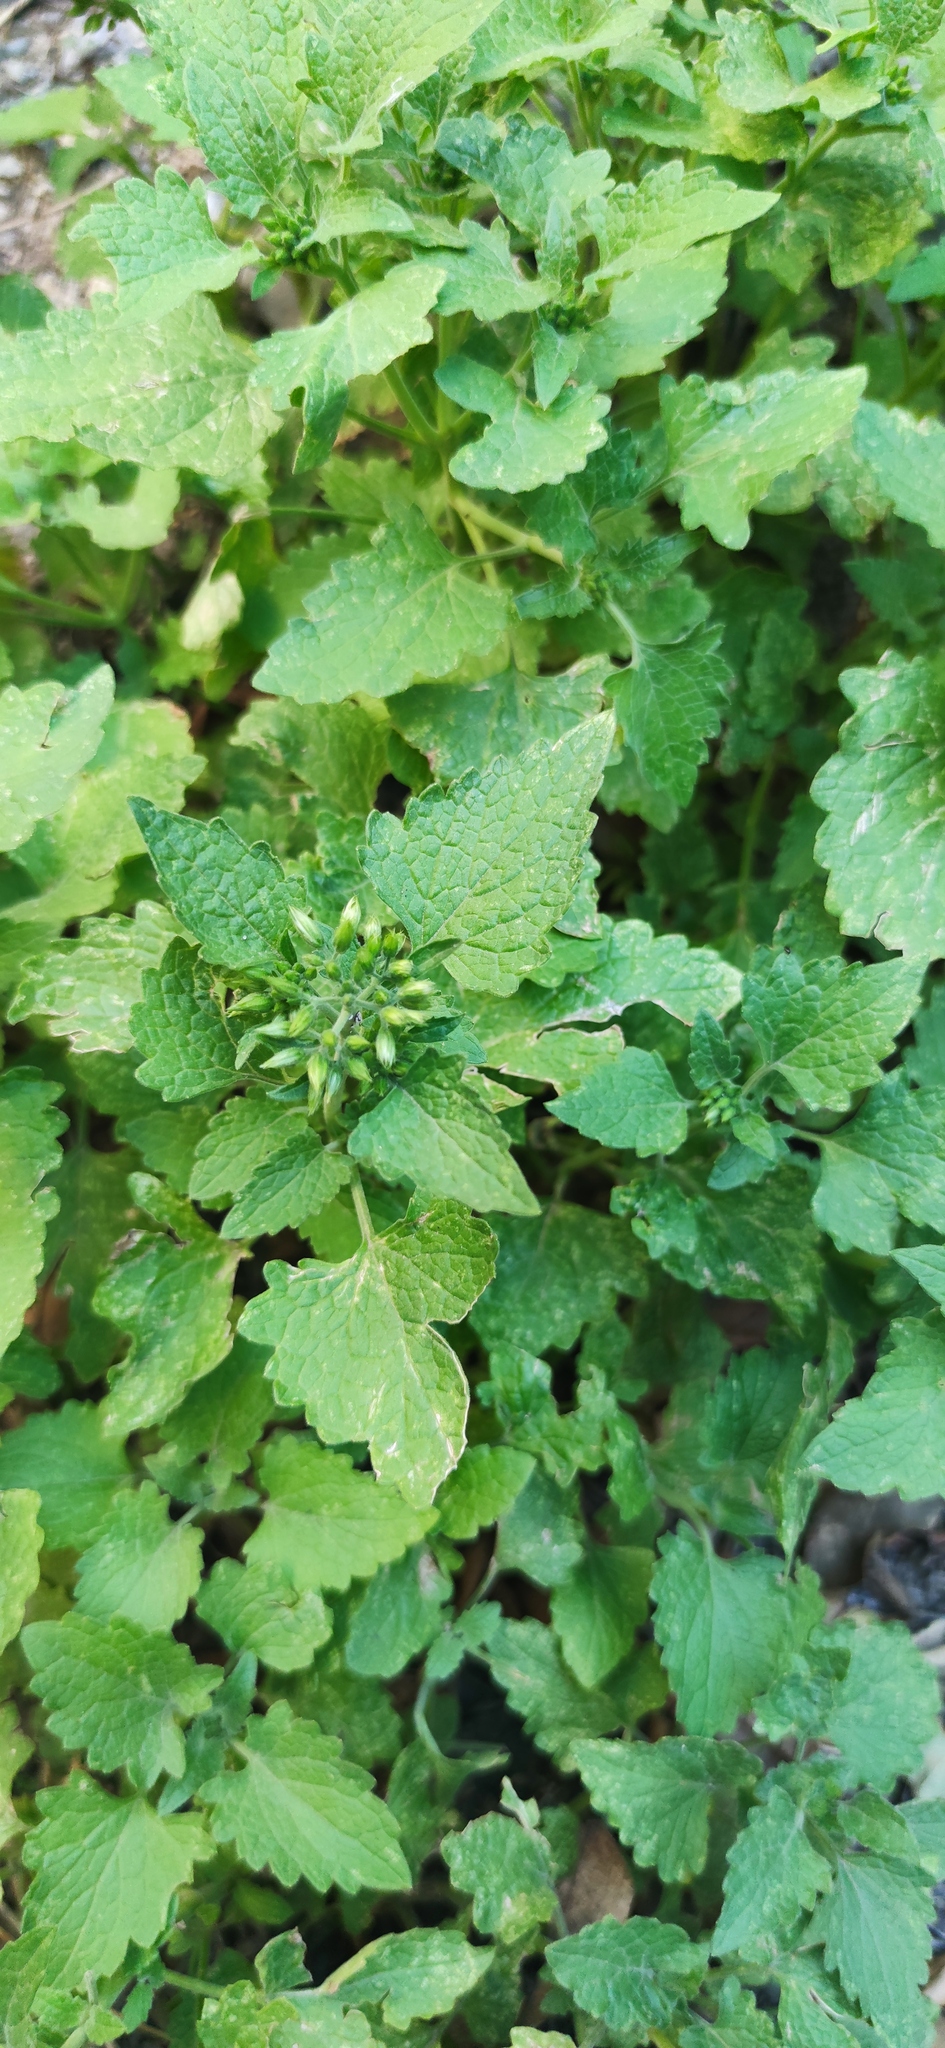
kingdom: Plantae
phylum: Tracheophyta
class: Magnoliopsida
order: Asterales
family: Asteraceae
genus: Flyriella
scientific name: Flyriella leonensis
